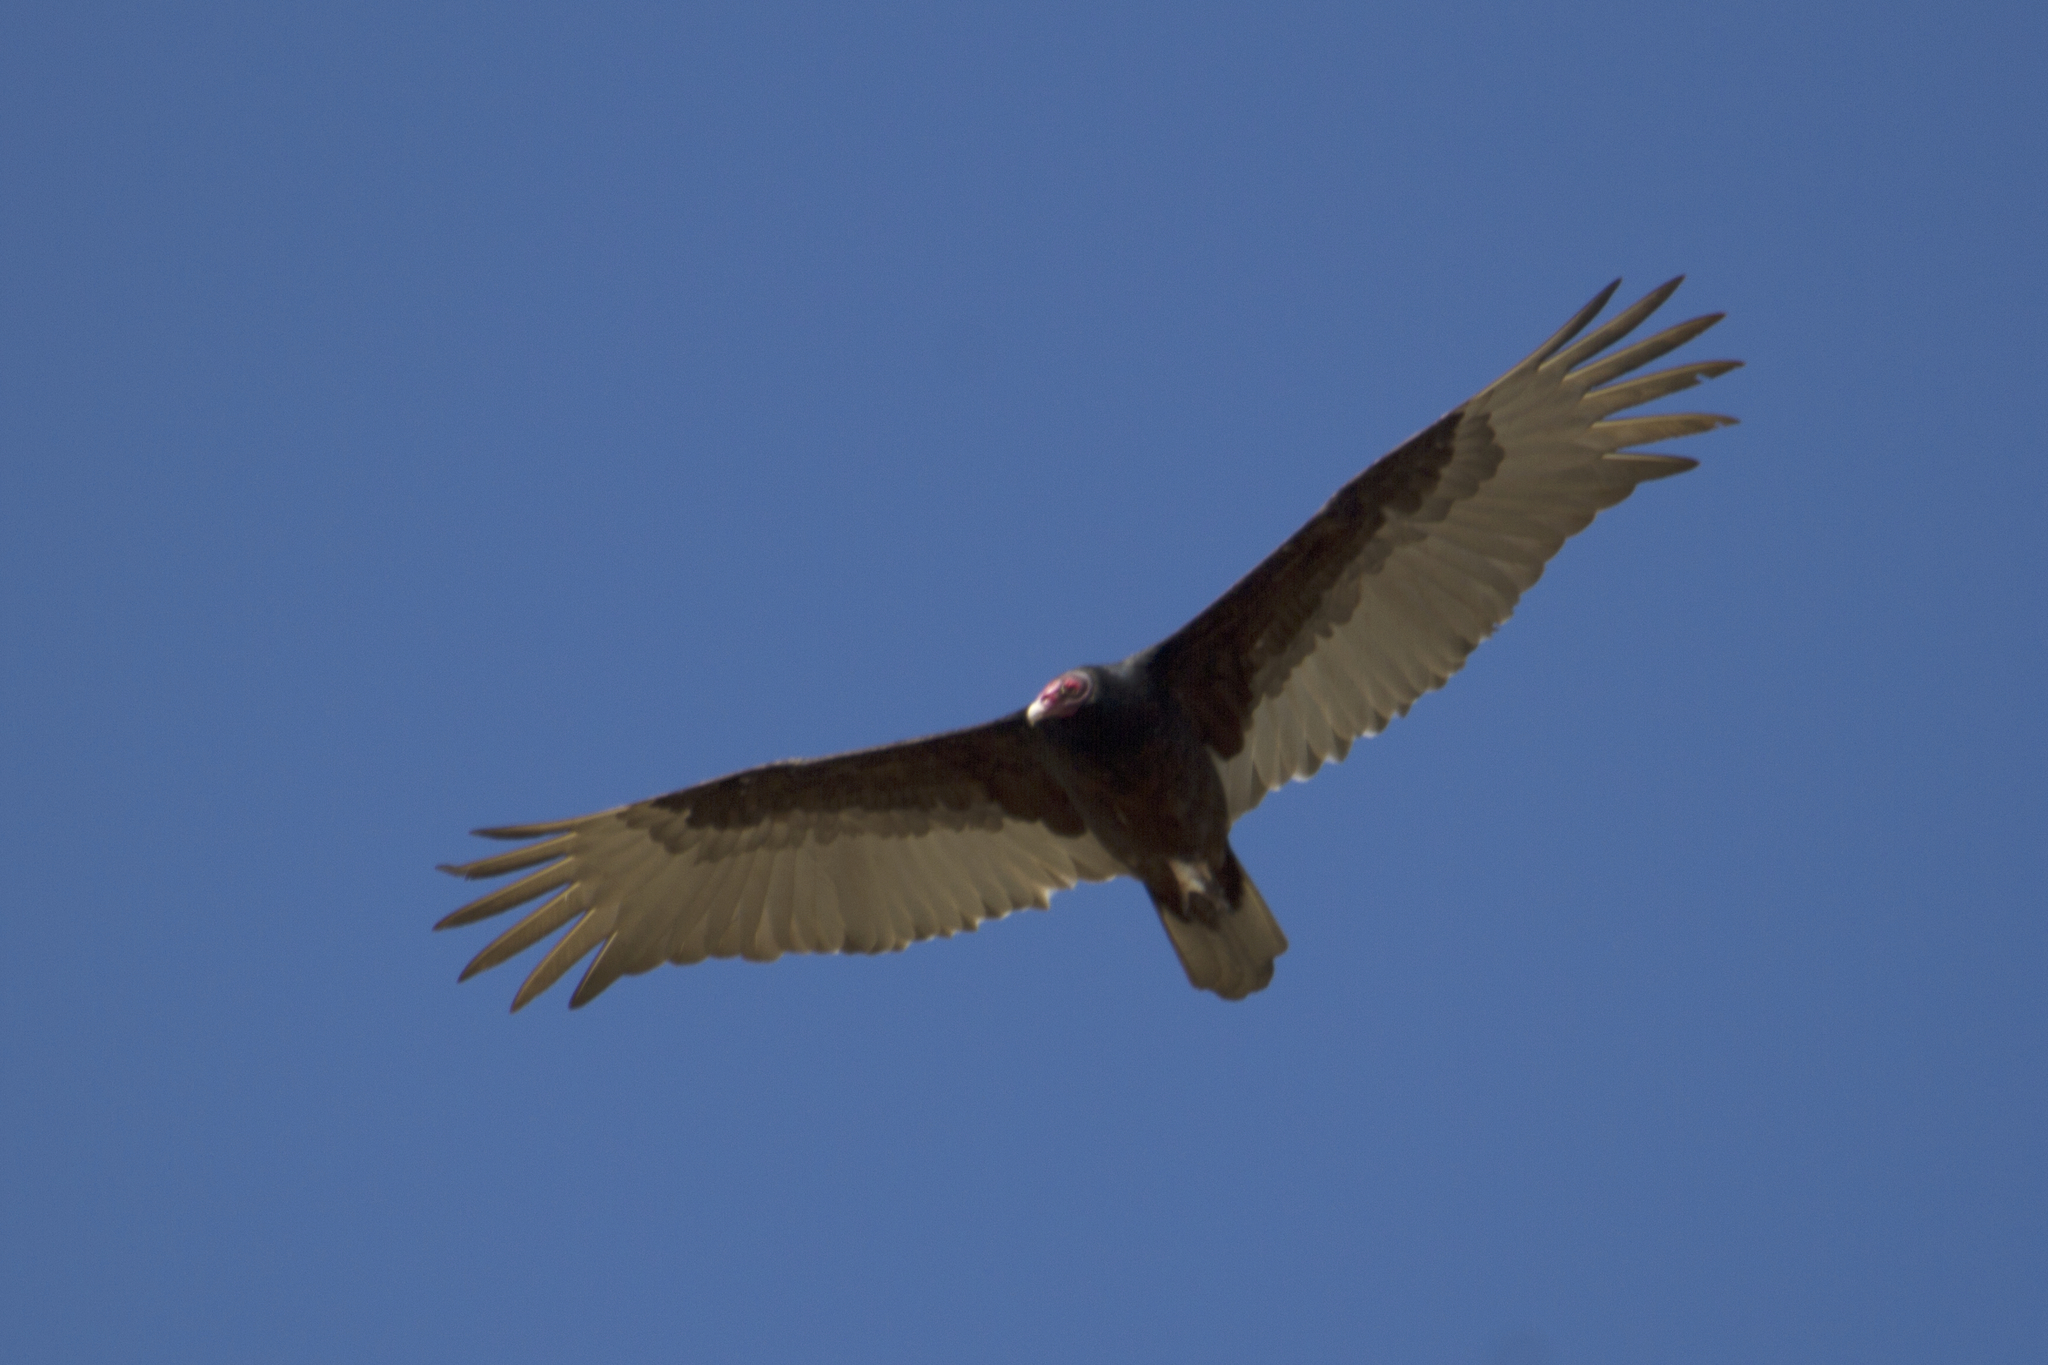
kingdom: Animalia
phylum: Chordata
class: Aves
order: Accipitriformes
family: Cathartidae
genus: Cathartes
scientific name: Cathartes aura
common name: Turkey vulture
